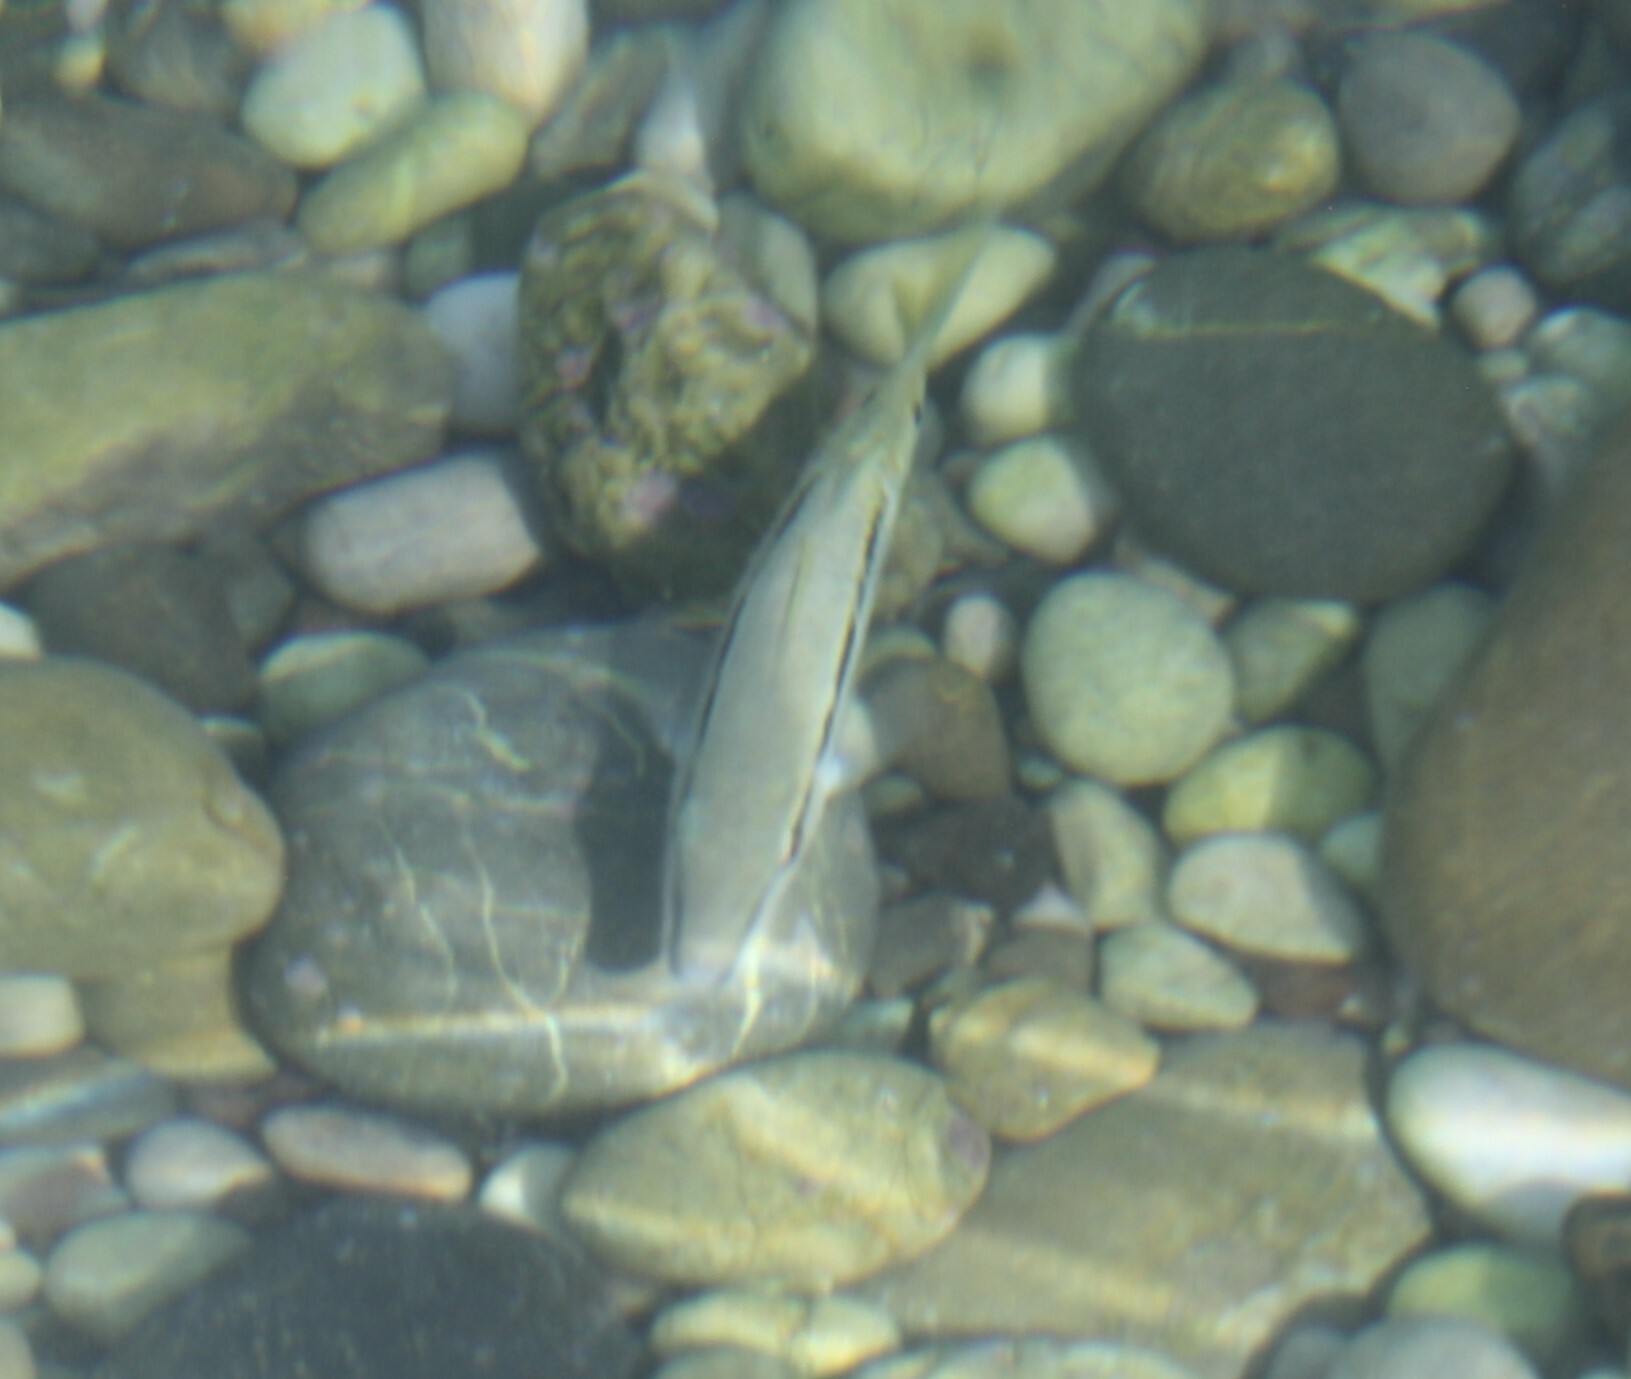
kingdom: Animalia
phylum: Chordata
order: Perciformes
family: Mullidae
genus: Parupeneus
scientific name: Parupeneus forsskali
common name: Red sea goatfish
